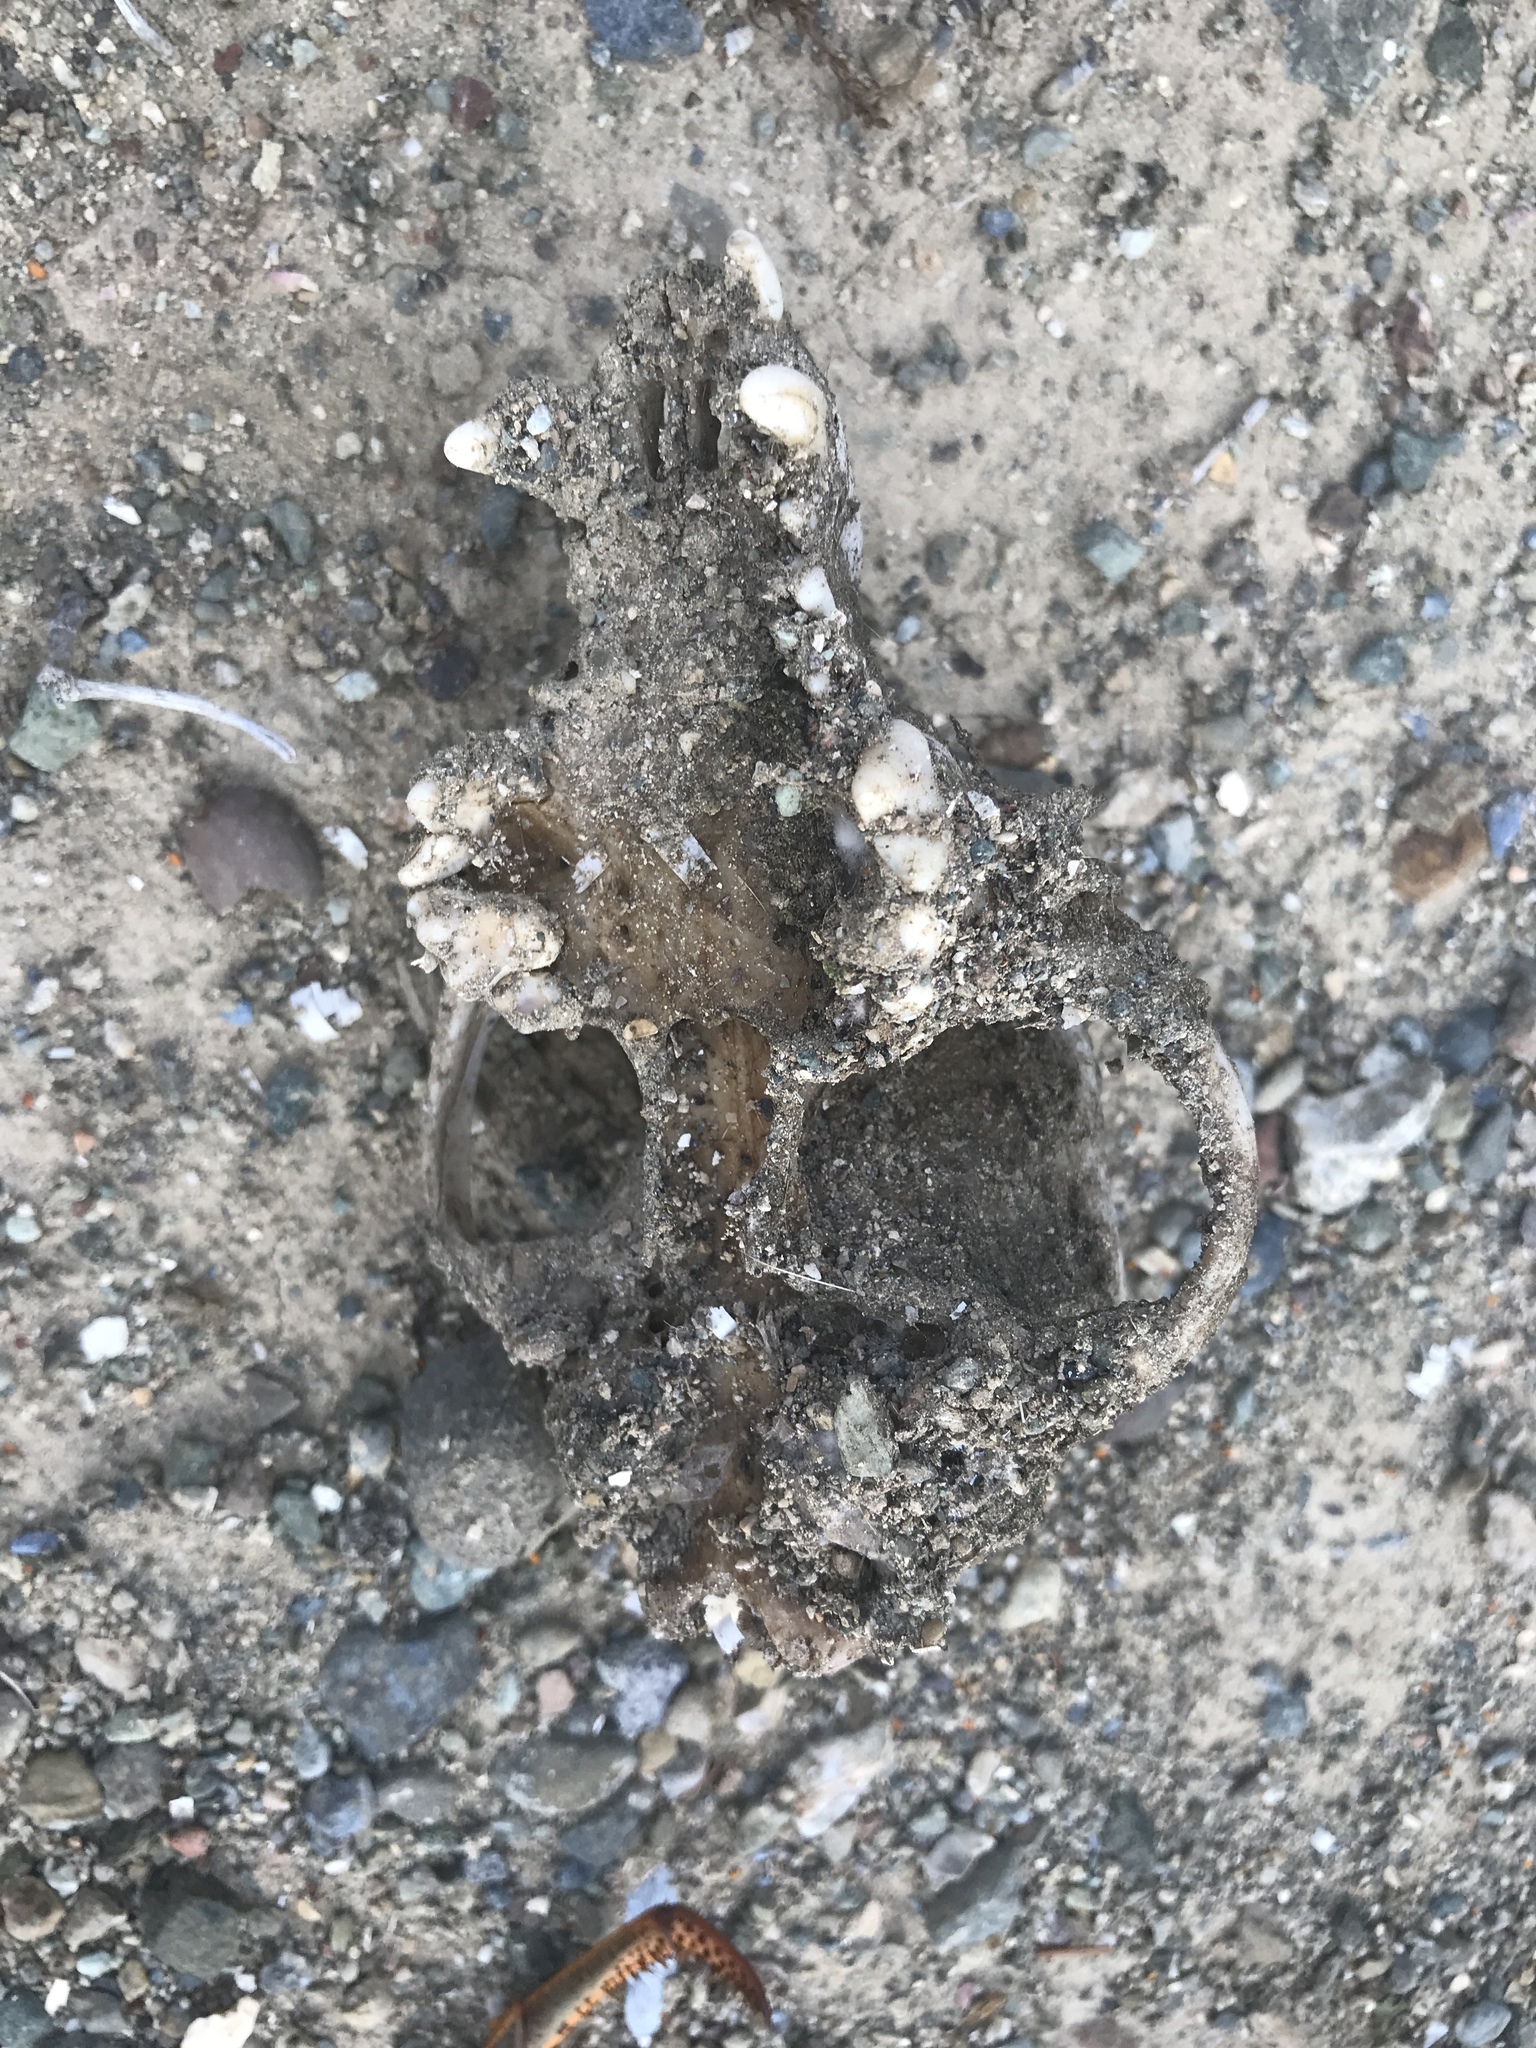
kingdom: Animalia
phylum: Chordata
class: Mammalia
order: Carnivora
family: Canidae
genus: Canis
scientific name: Canis lupus
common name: Gray wolf
